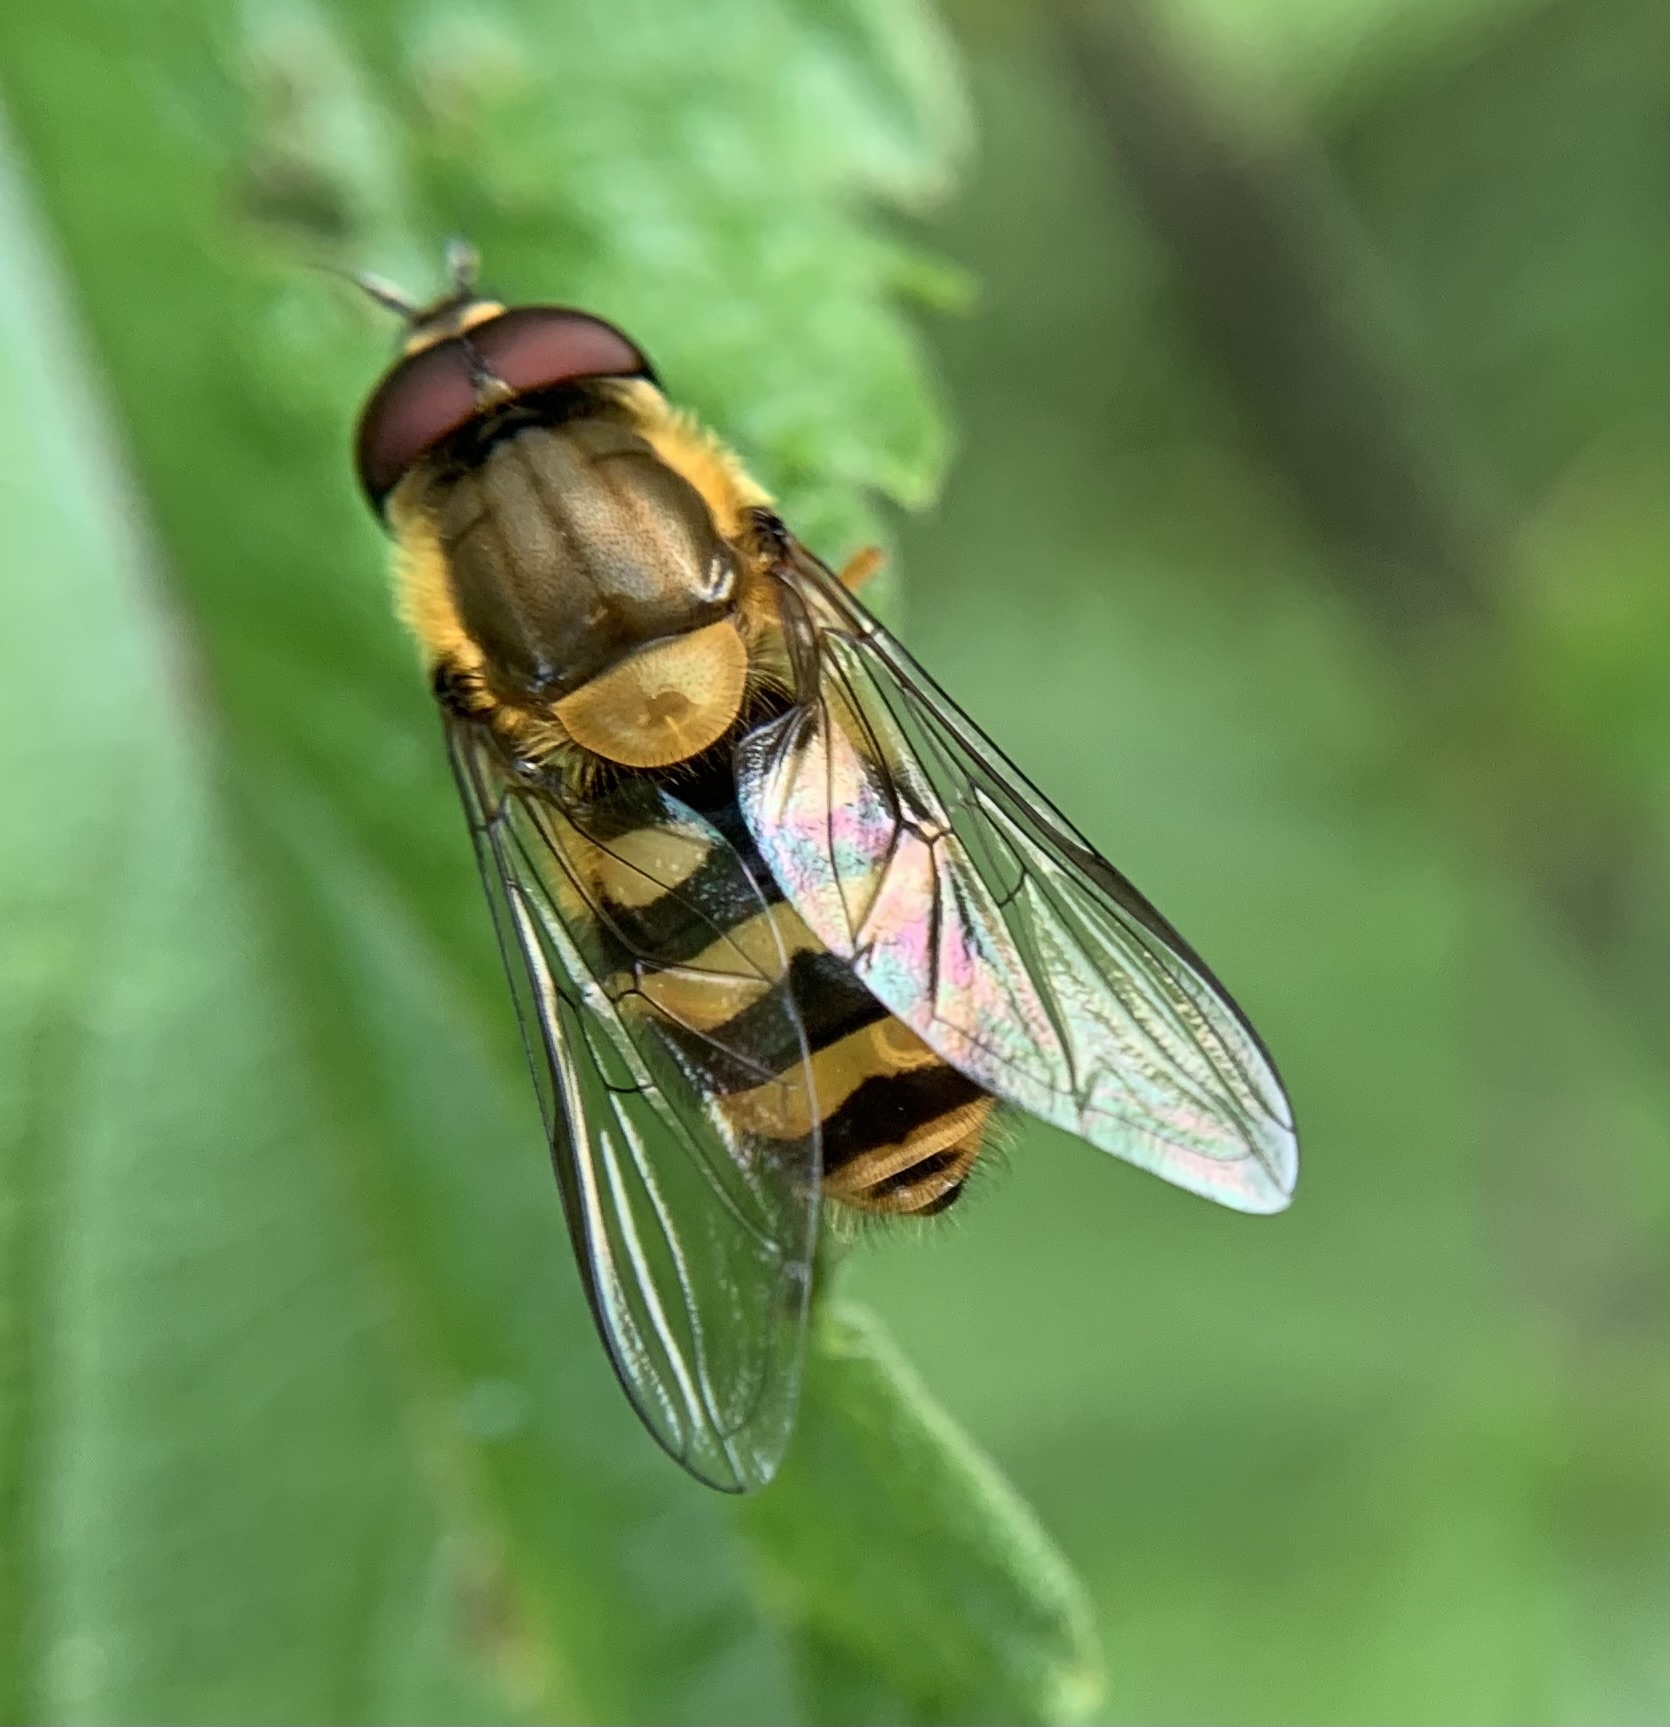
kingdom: Animalia
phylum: Arthropoda
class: Insecta
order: Diptera
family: Syrphidae
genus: Syrphus
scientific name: Syrphus ribesii
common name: Common flower fly
